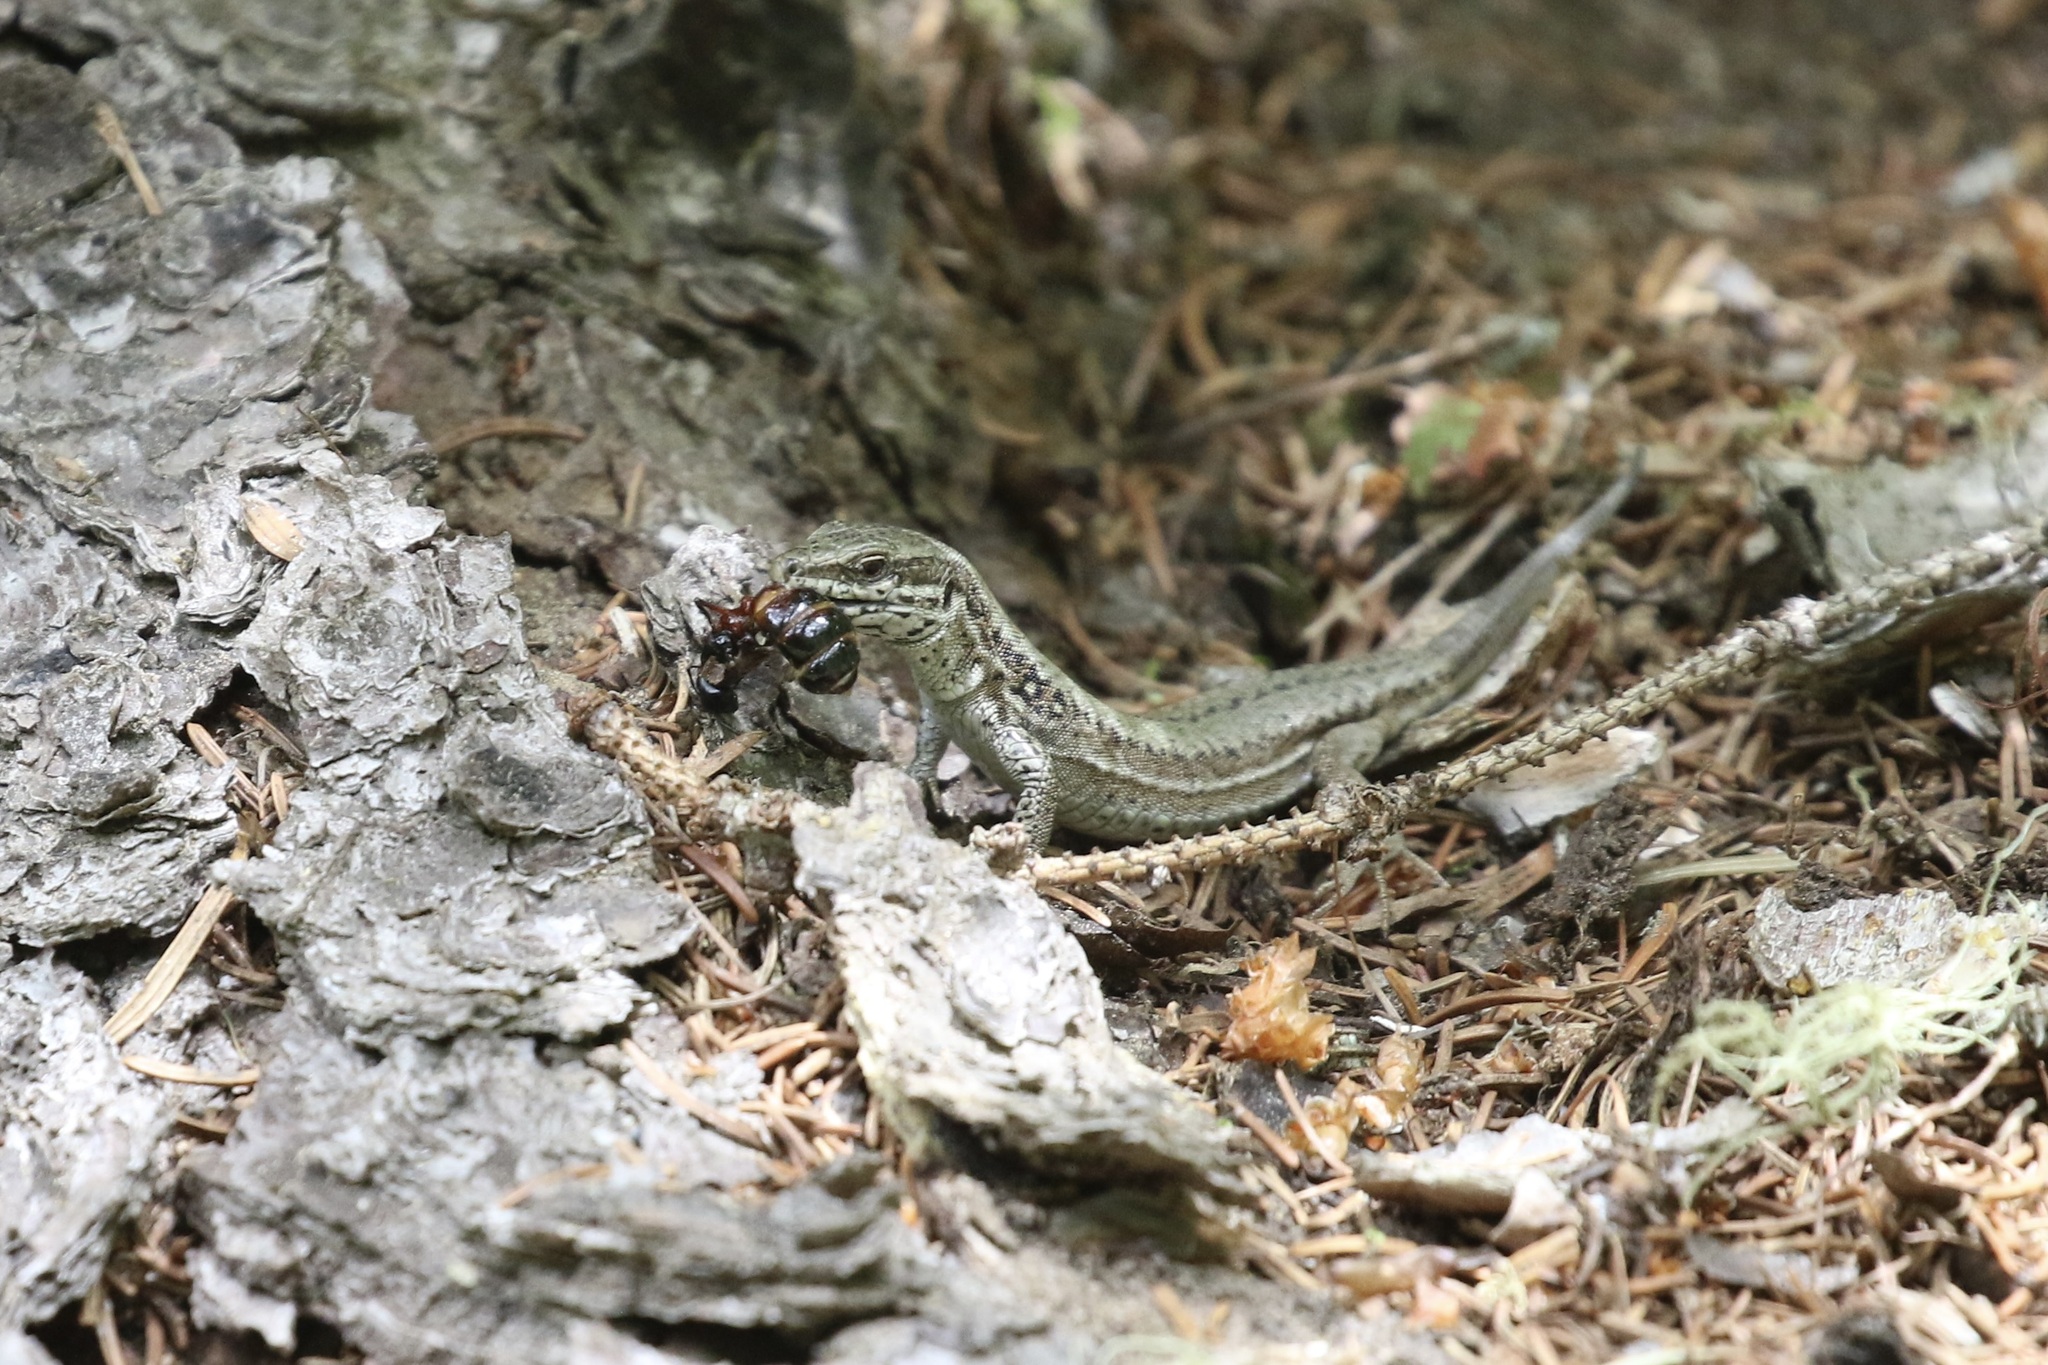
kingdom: Animalia
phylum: Chordata
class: Squamata
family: Lacertidae
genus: Podarcis
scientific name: Podarcis muralis
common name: Common wall lizard
